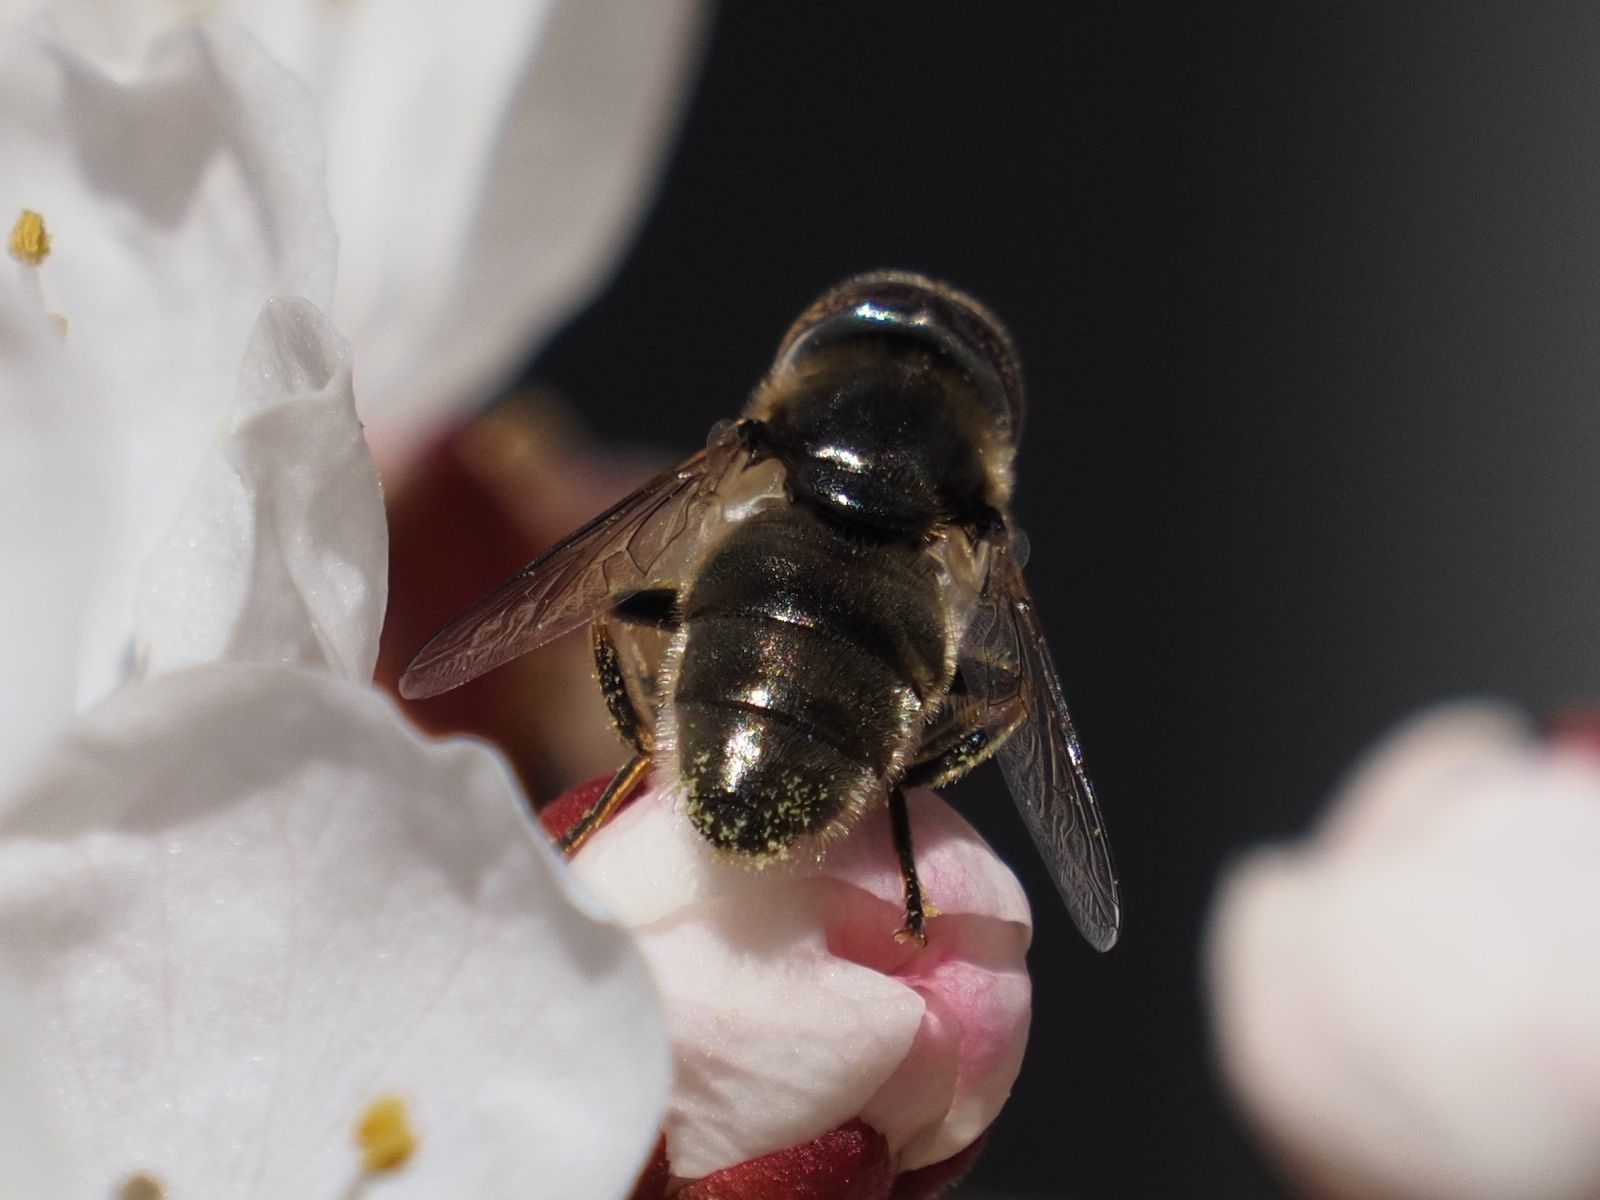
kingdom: Animalia
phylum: Arthropoda
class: Insecta
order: Diptera
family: Syrphidae
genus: Eristalinus
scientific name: Eristalinus aeneus
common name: Syrphid fly
